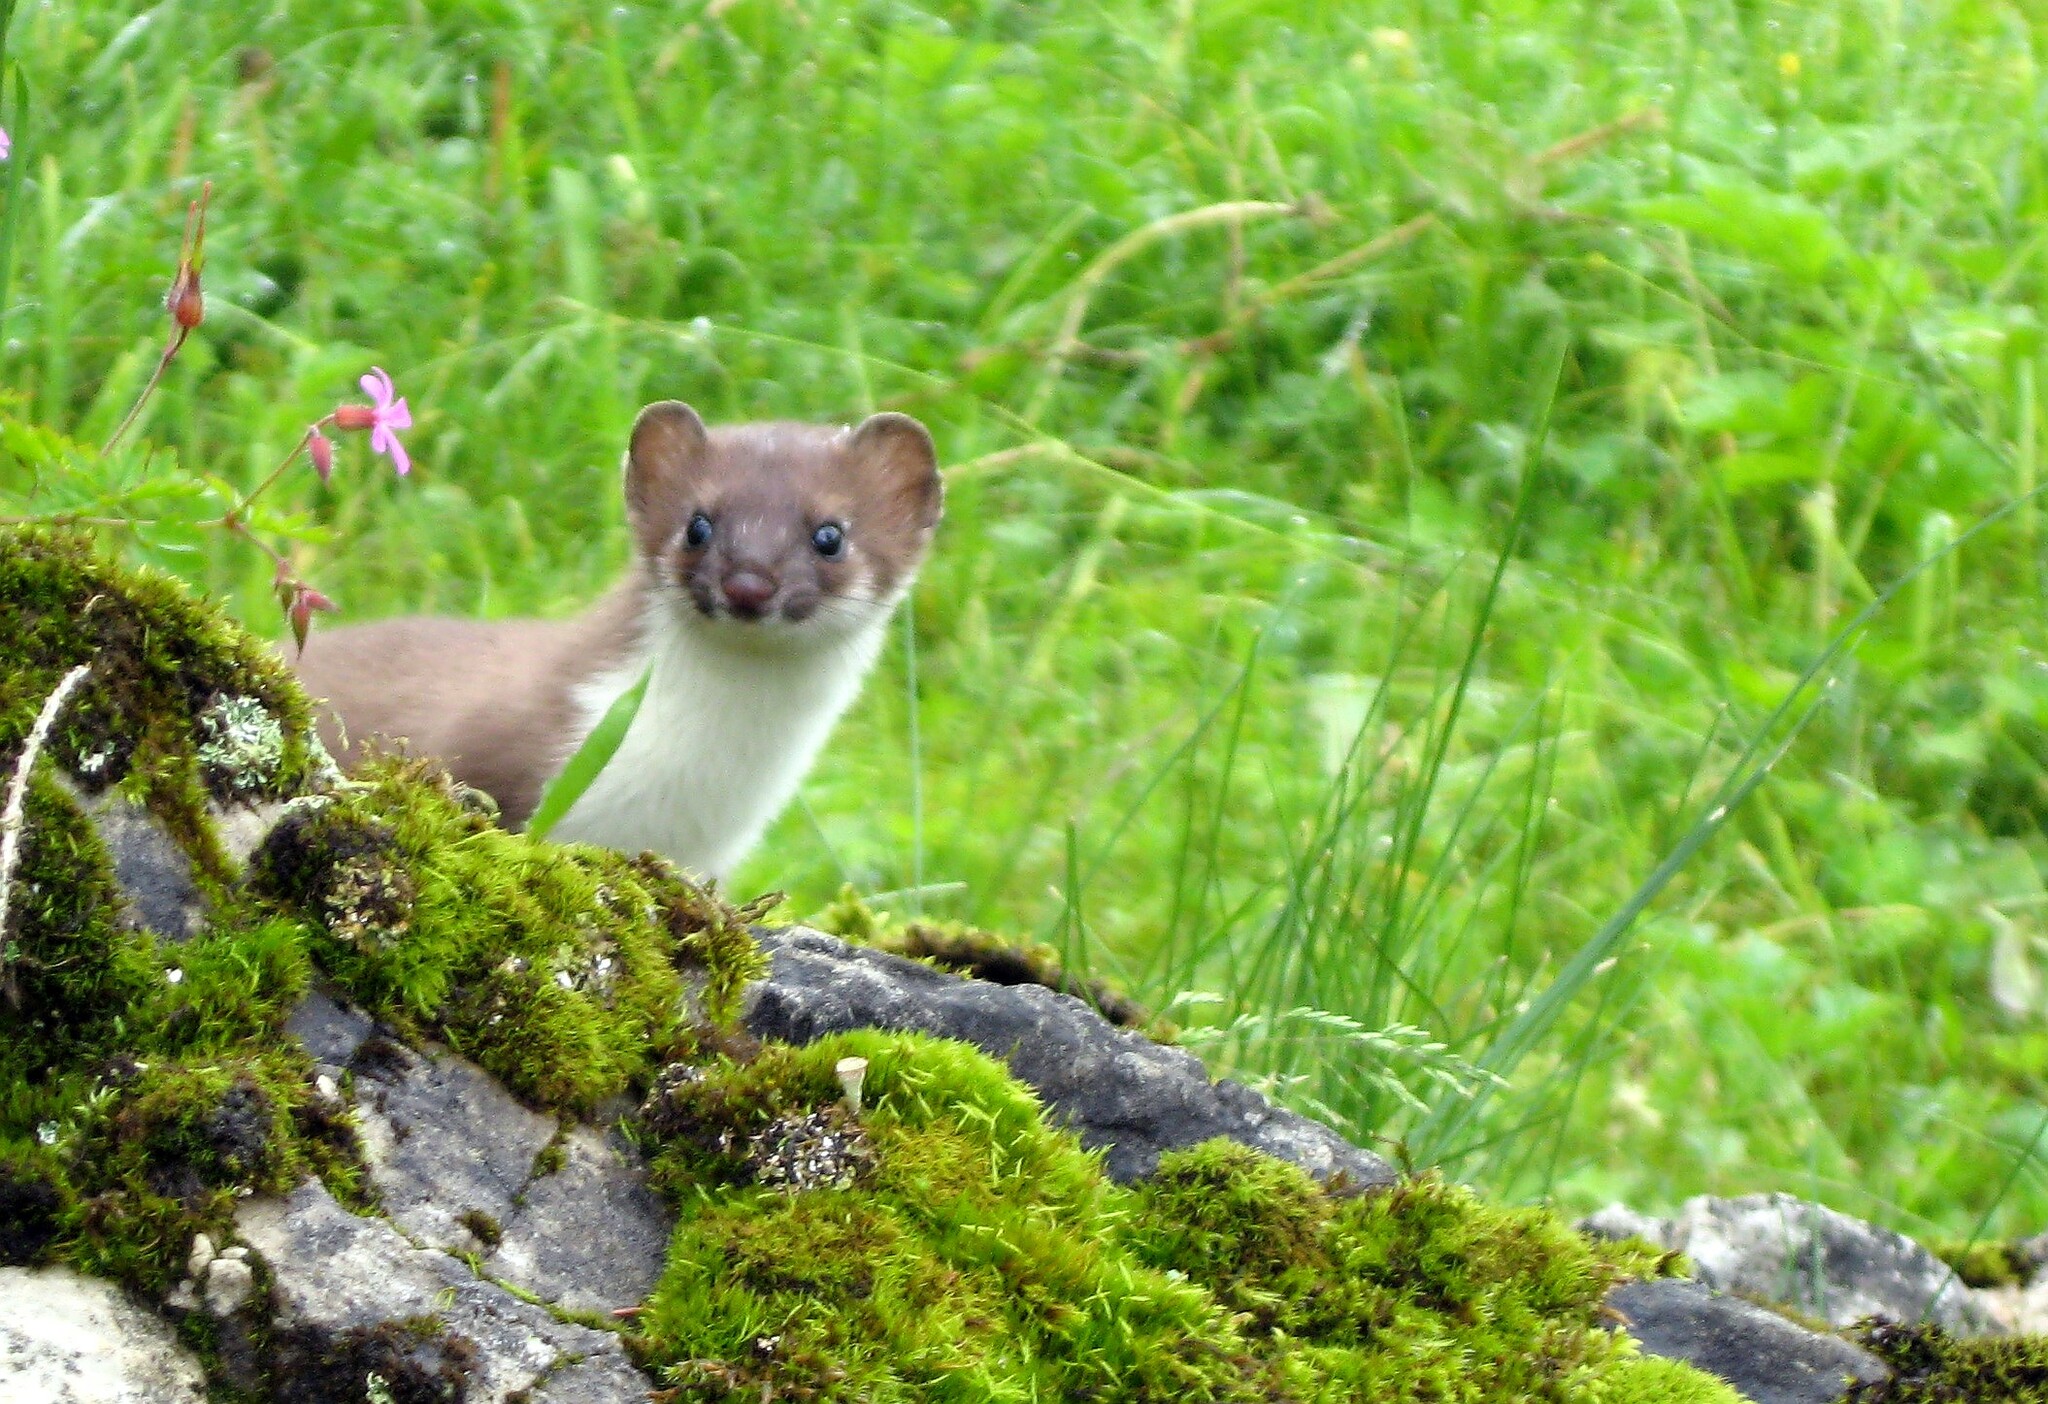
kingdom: Animalia
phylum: Chordata
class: Mammalia
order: Carnivora
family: Mustelidae
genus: Mustela
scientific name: Mustela erminea
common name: Stoat
